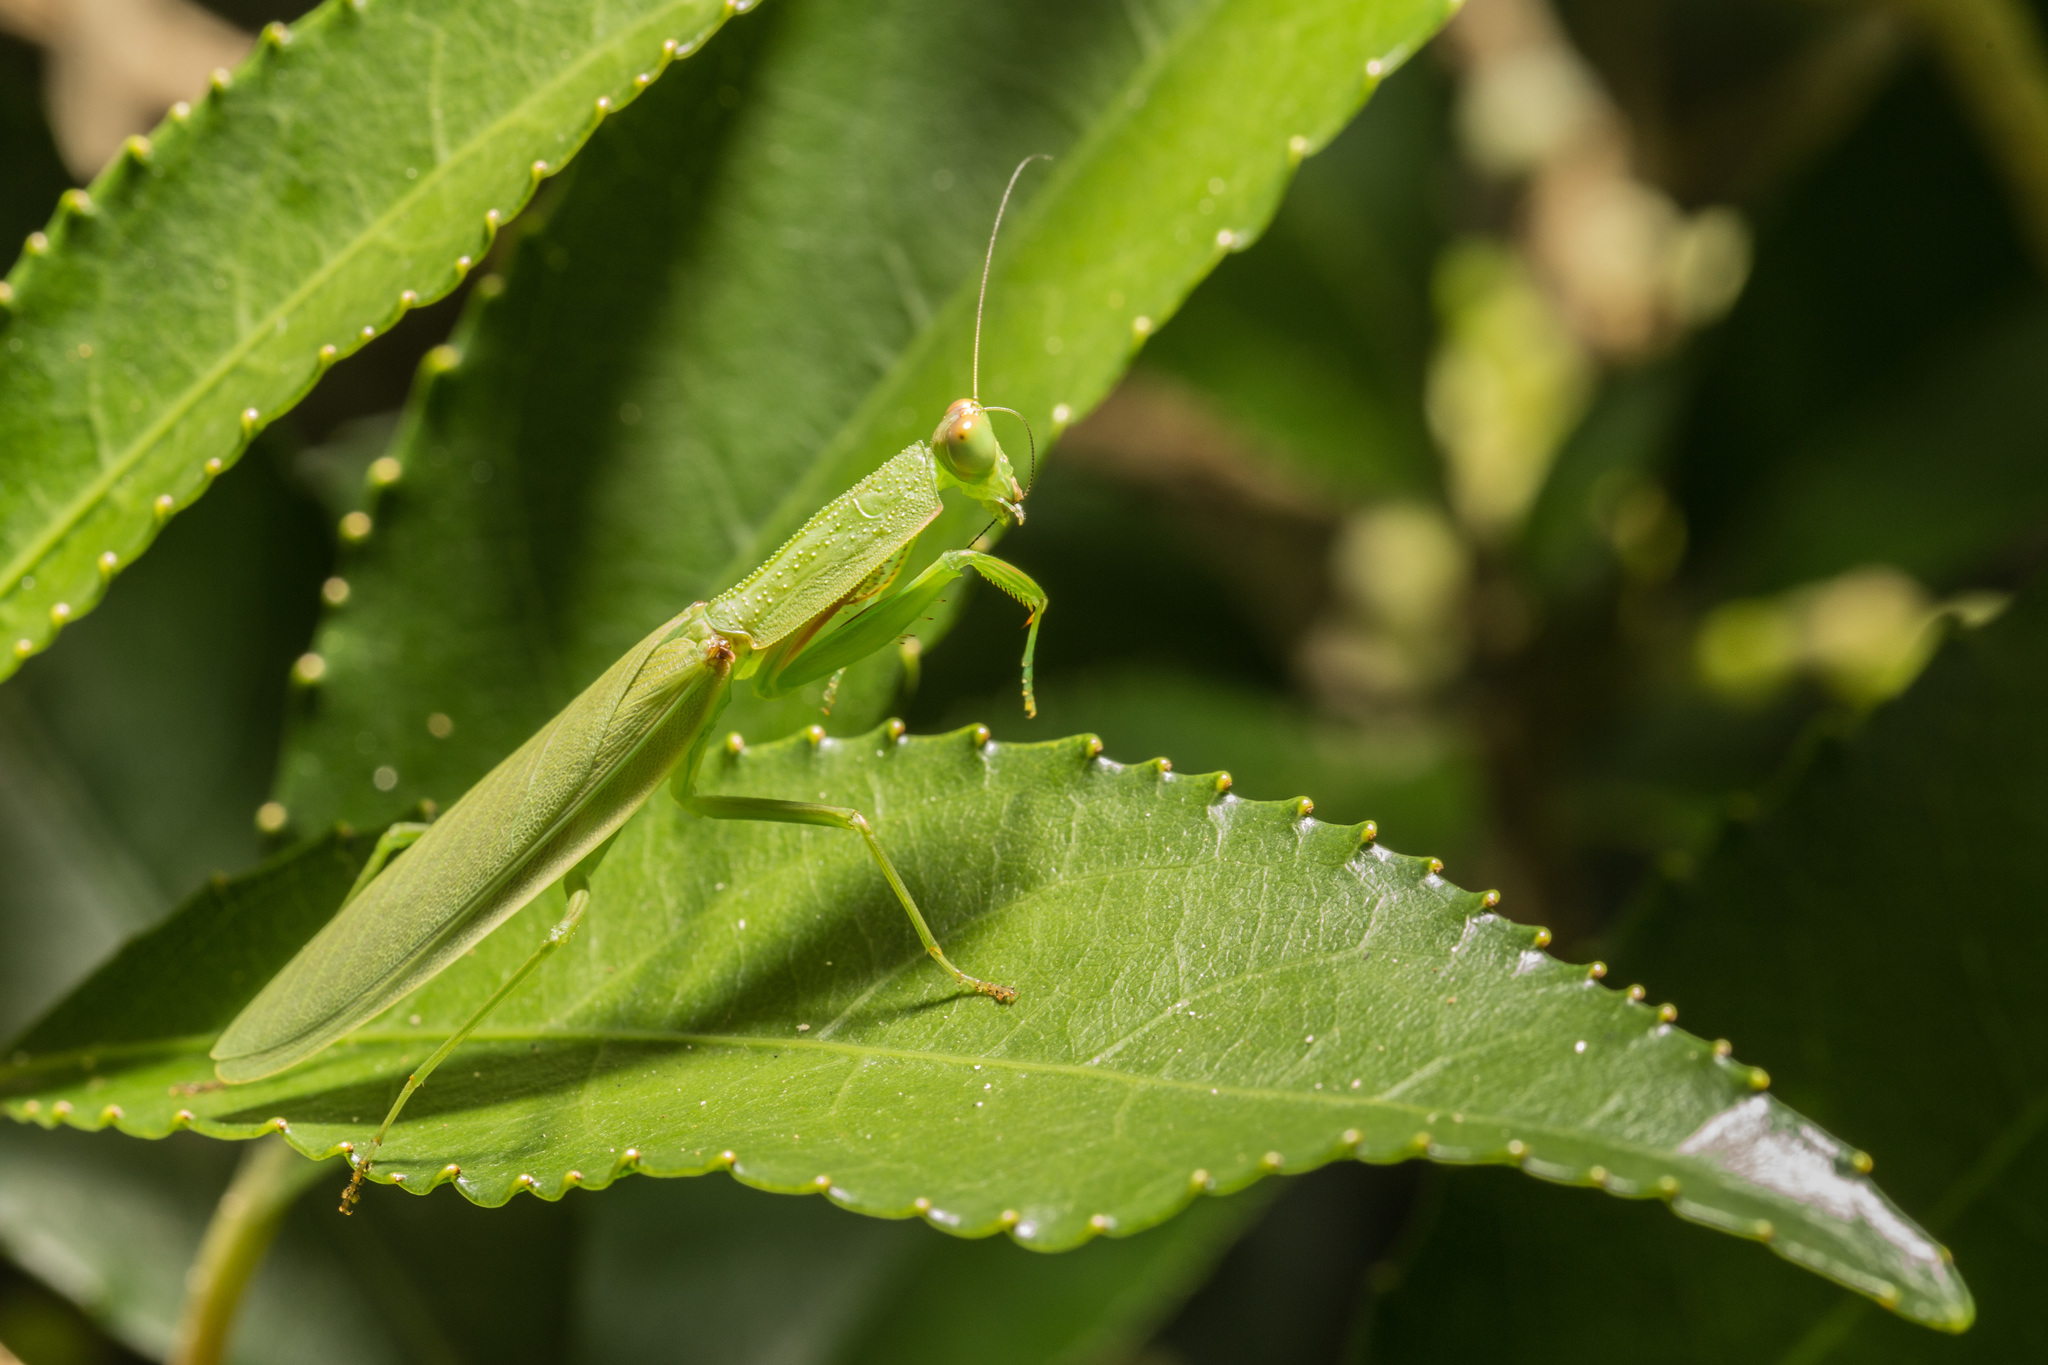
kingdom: Animalia
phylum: Arthropoda
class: Insecta
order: Mantodea
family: Mantidae
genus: Orthodera
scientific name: Orthodera novaezealandiae
